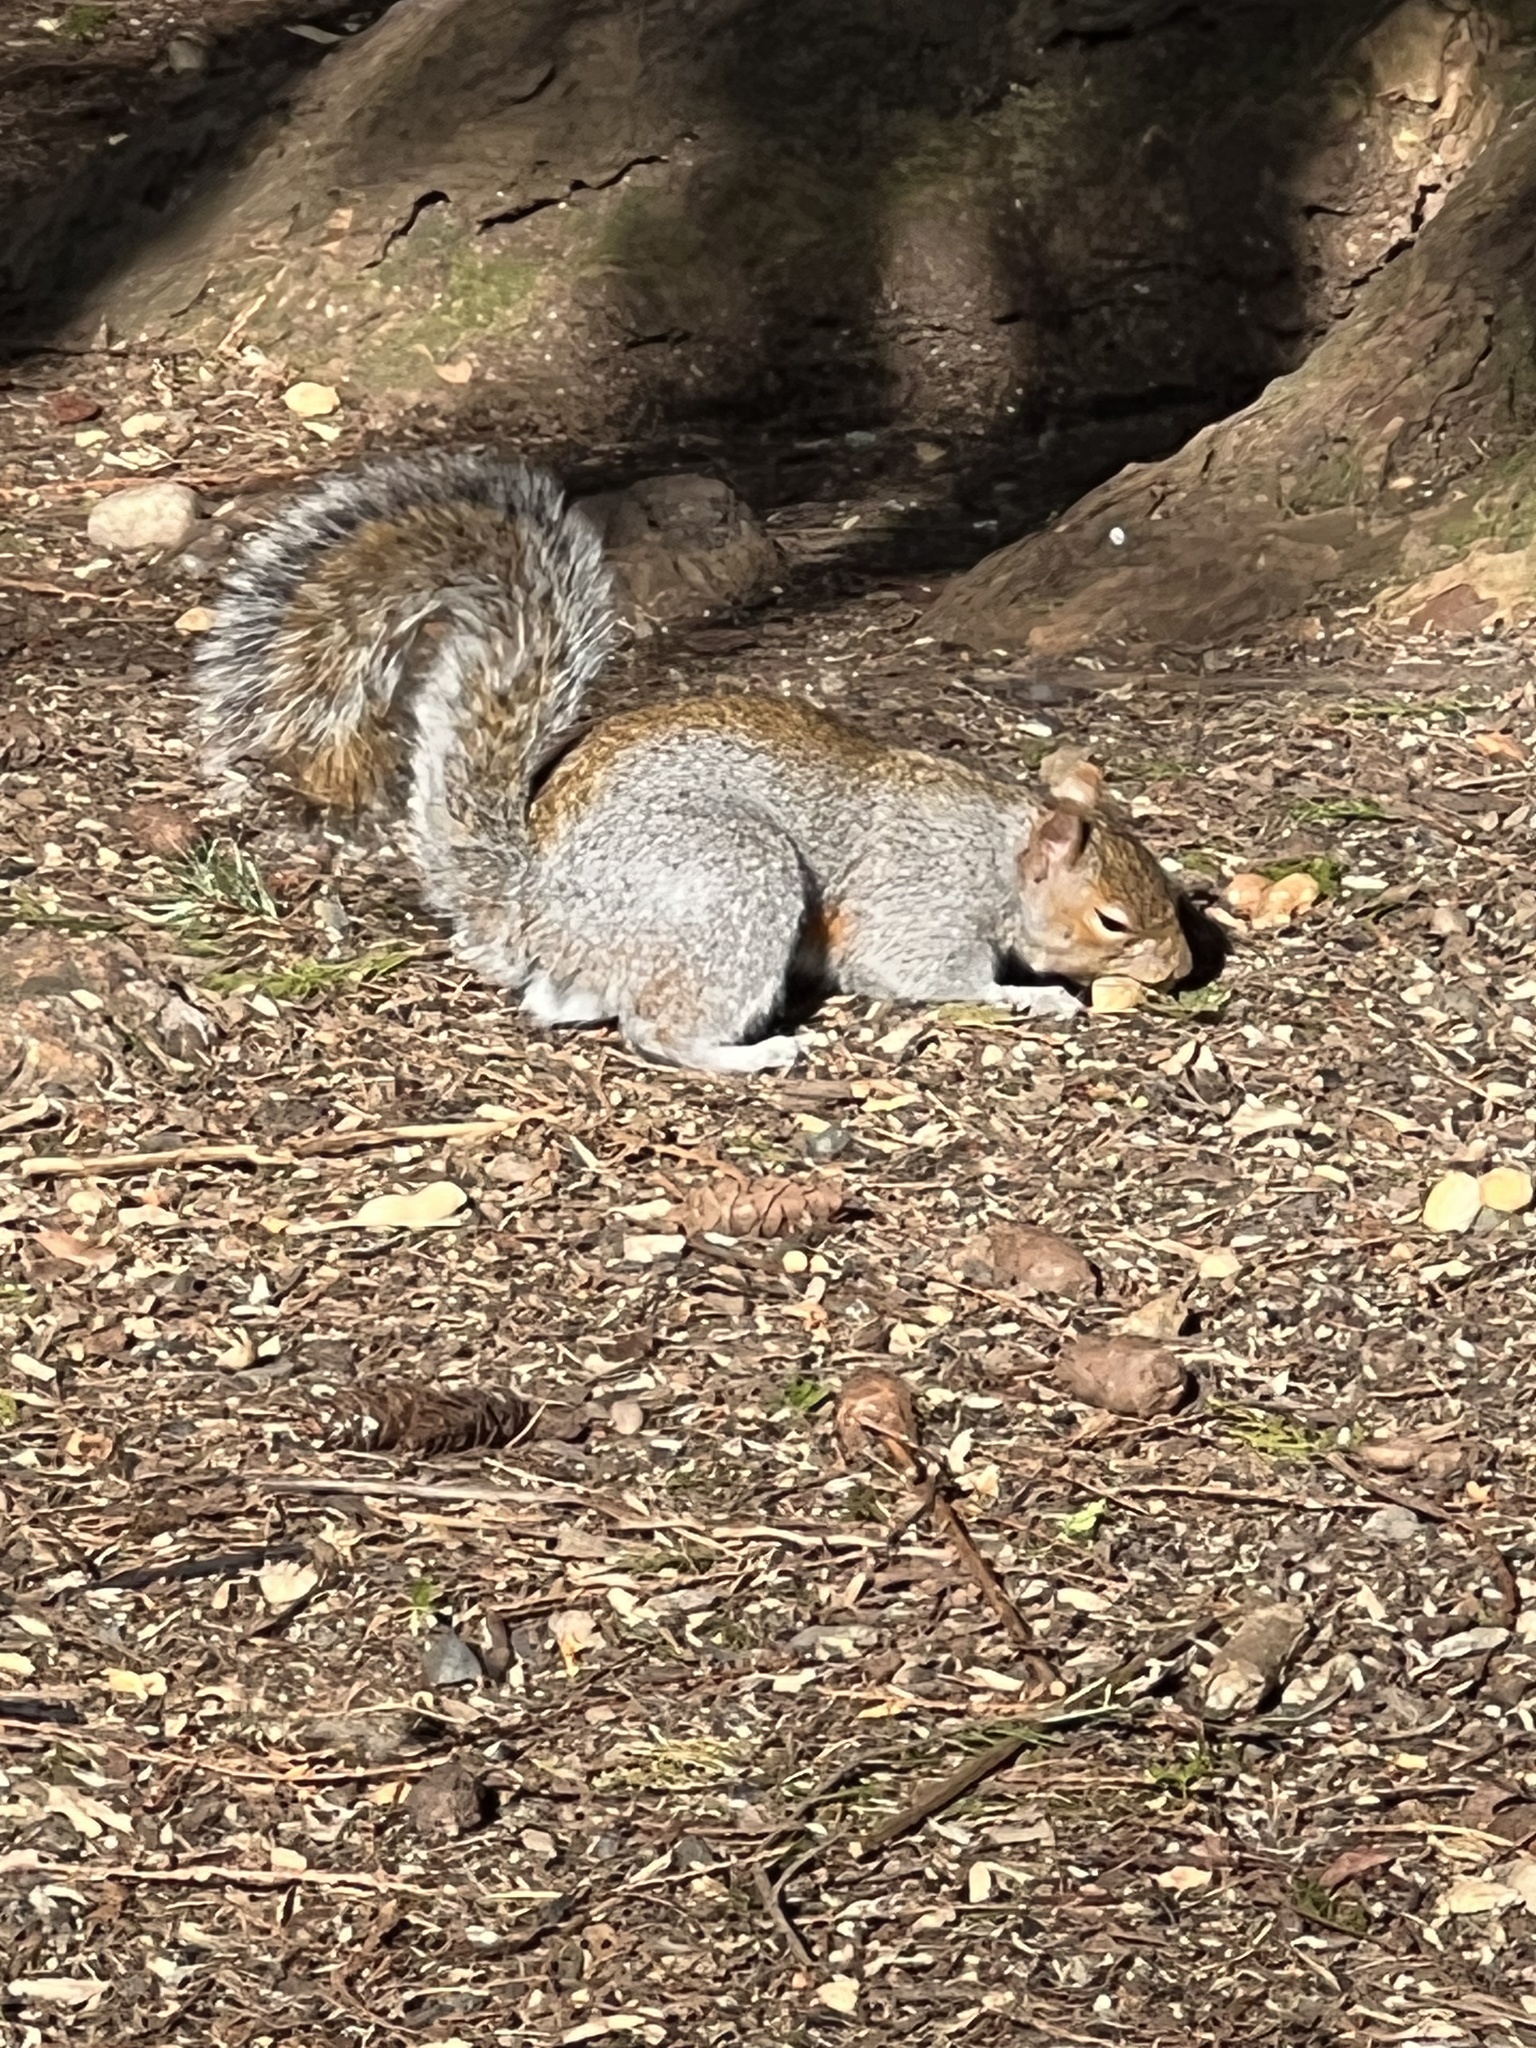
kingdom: Animalia
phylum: Chordata
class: Mammalia
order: Rodentia
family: Sciuridae
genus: Sciurus
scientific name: Sciurus carolinensis
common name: Eastern gray squirrel
